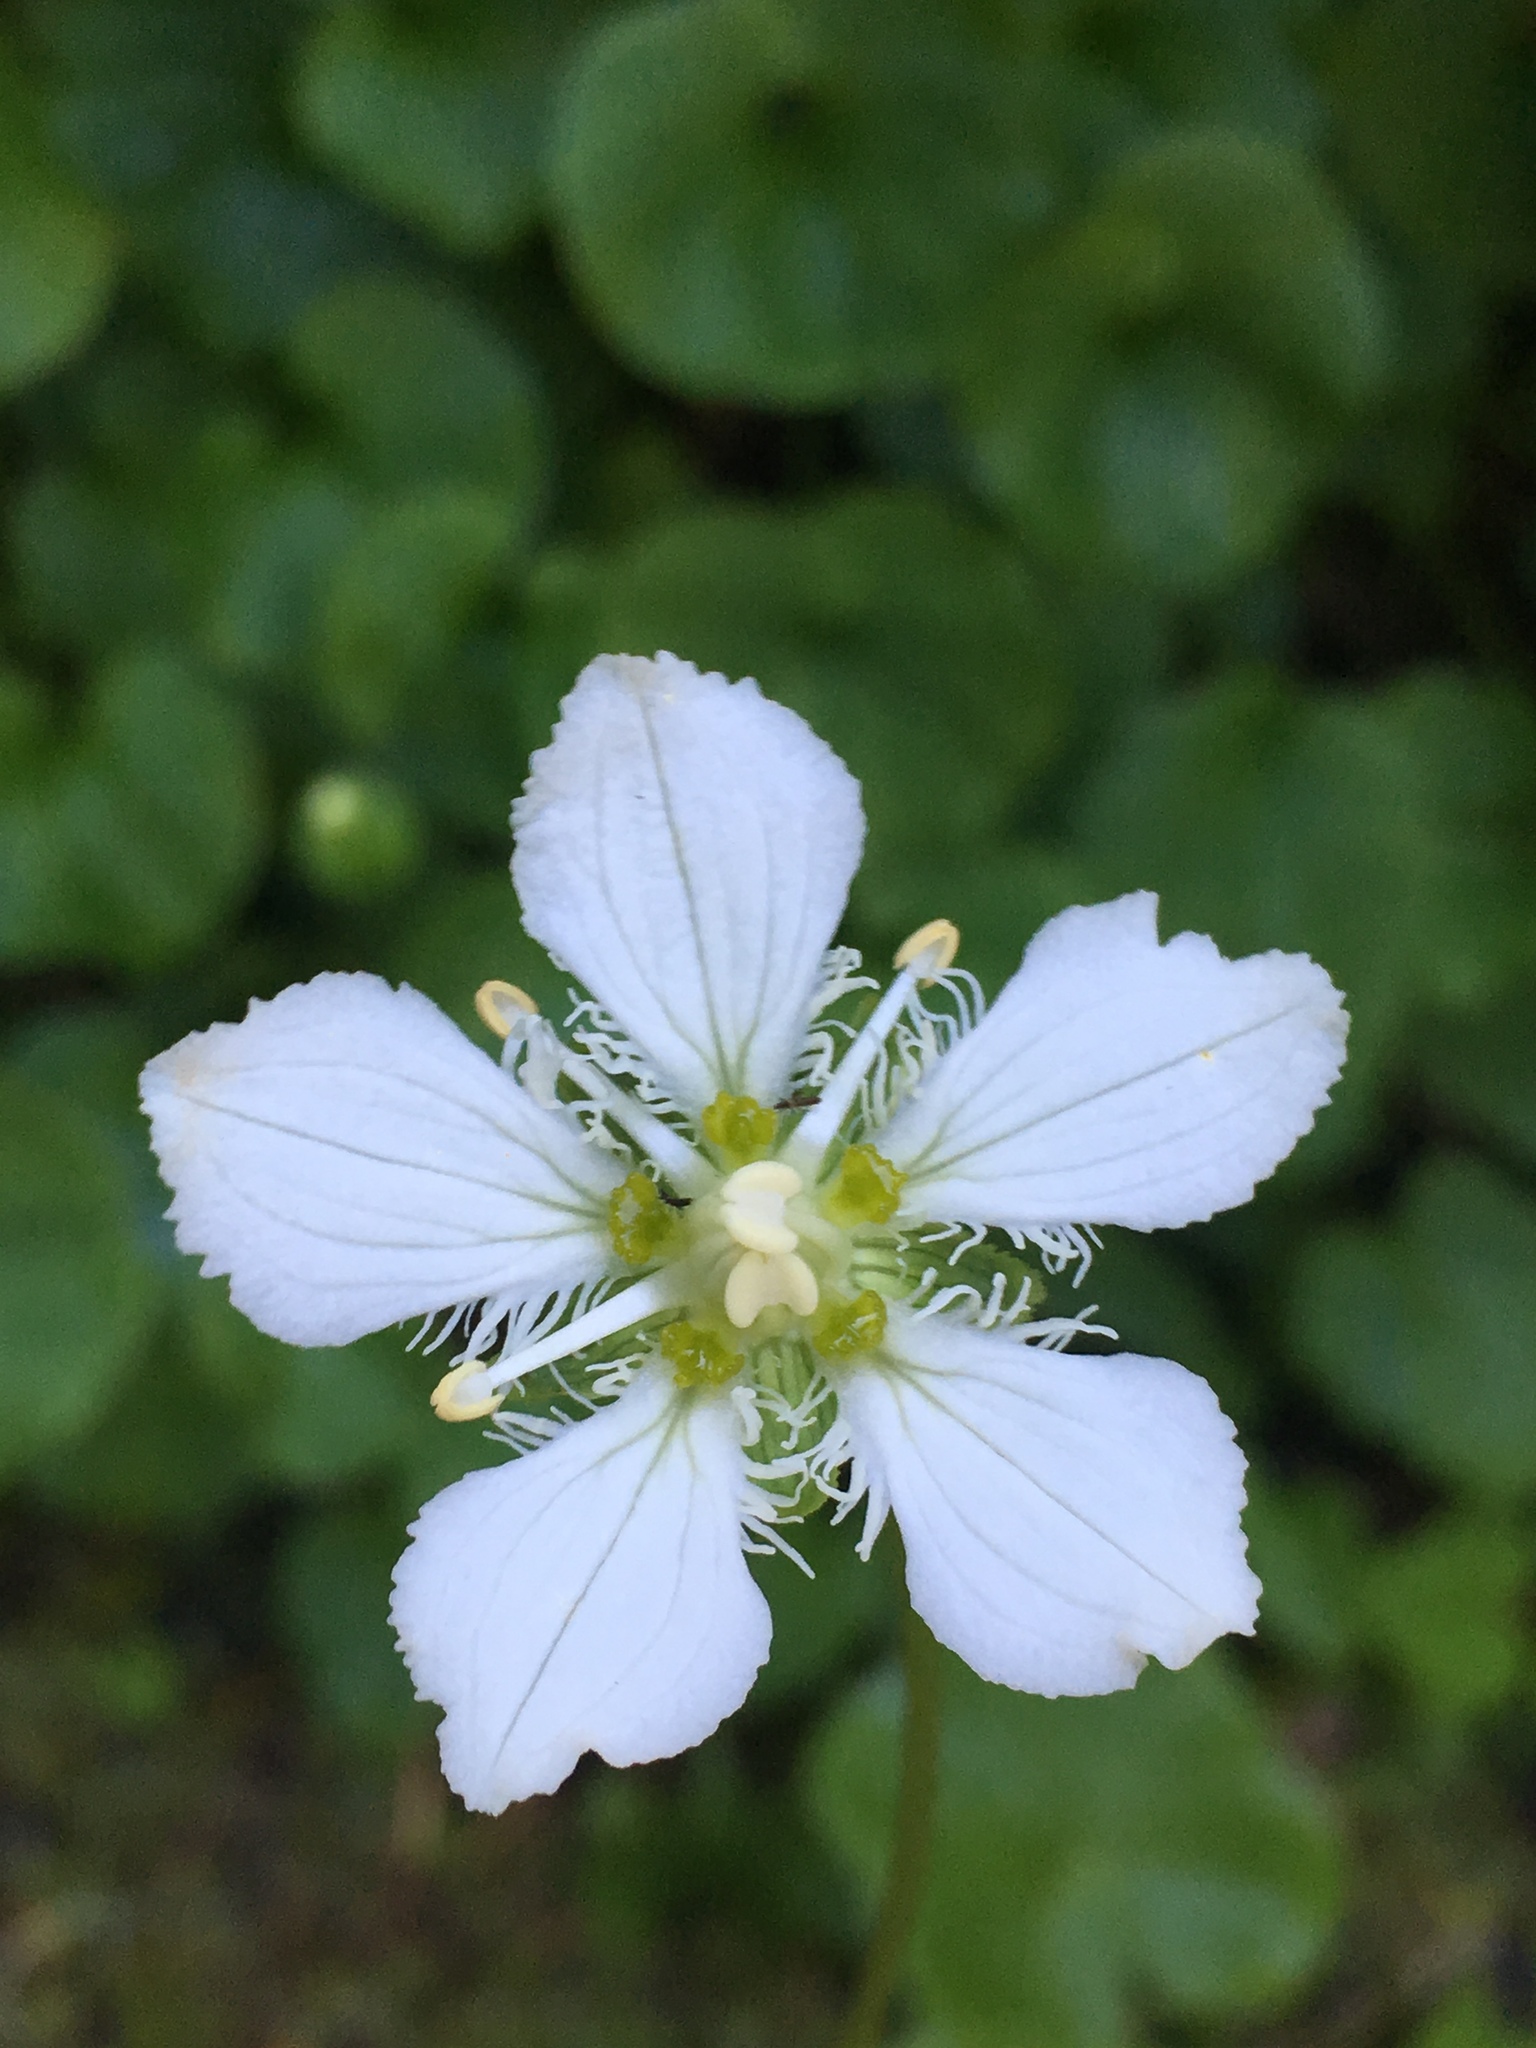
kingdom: Plantae
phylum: Tracheophyta
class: Magnoliopsida
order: Celastrales
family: Parnassiaceae
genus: Parnassia
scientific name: Parnassia fimbriata
